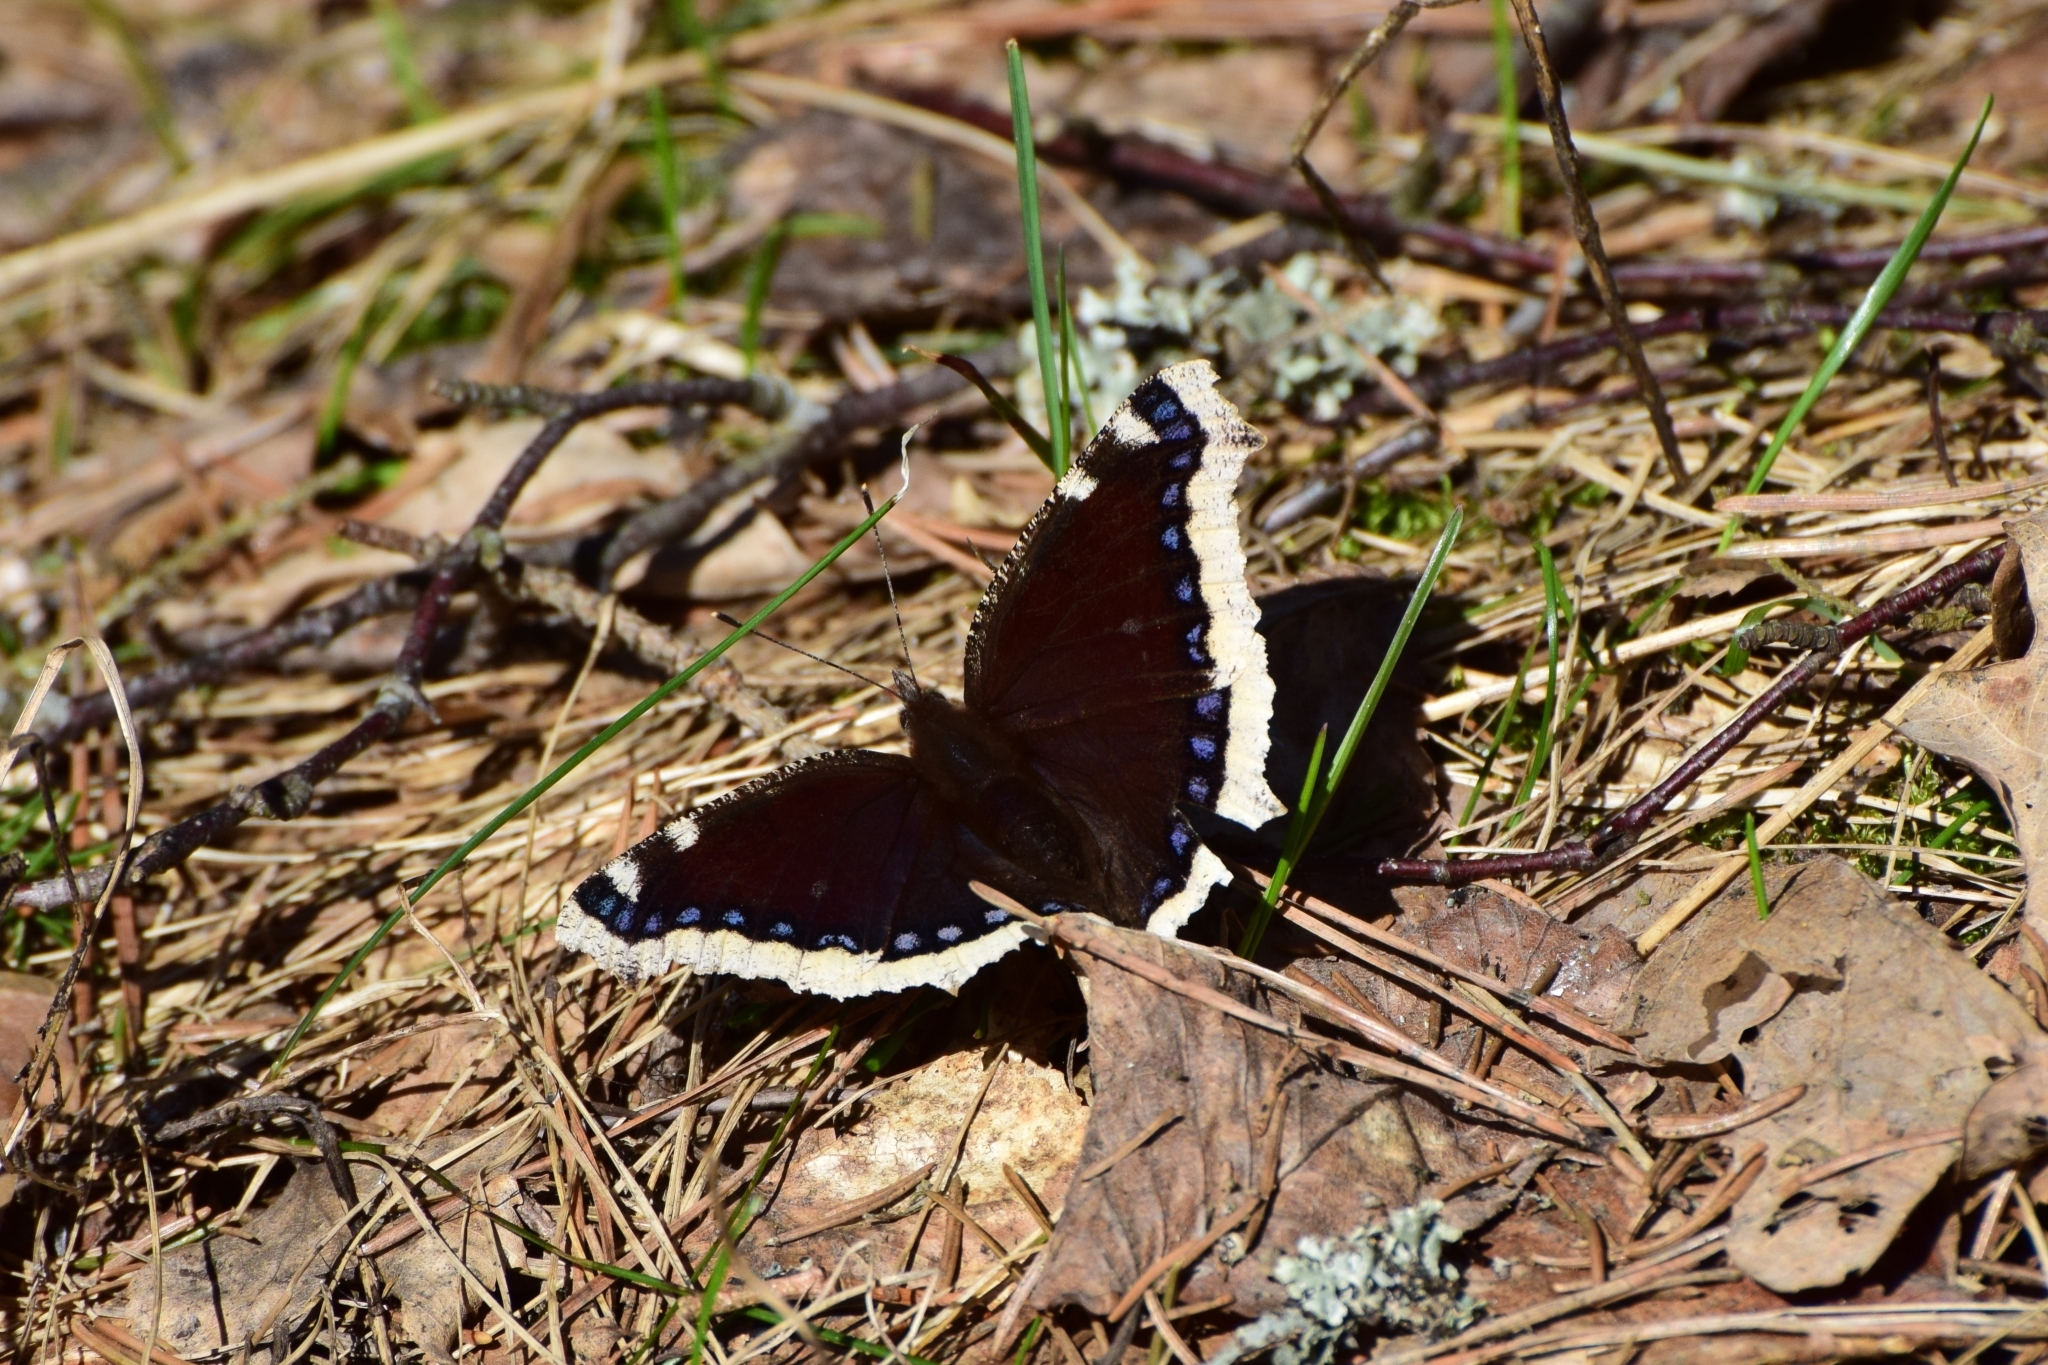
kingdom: Animalia
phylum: Arthropoda
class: Insecta
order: Lepidoptera
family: Nymphalidae
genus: Nymphalis
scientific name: Nymphalis antiopa
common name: Camberwell beauty
